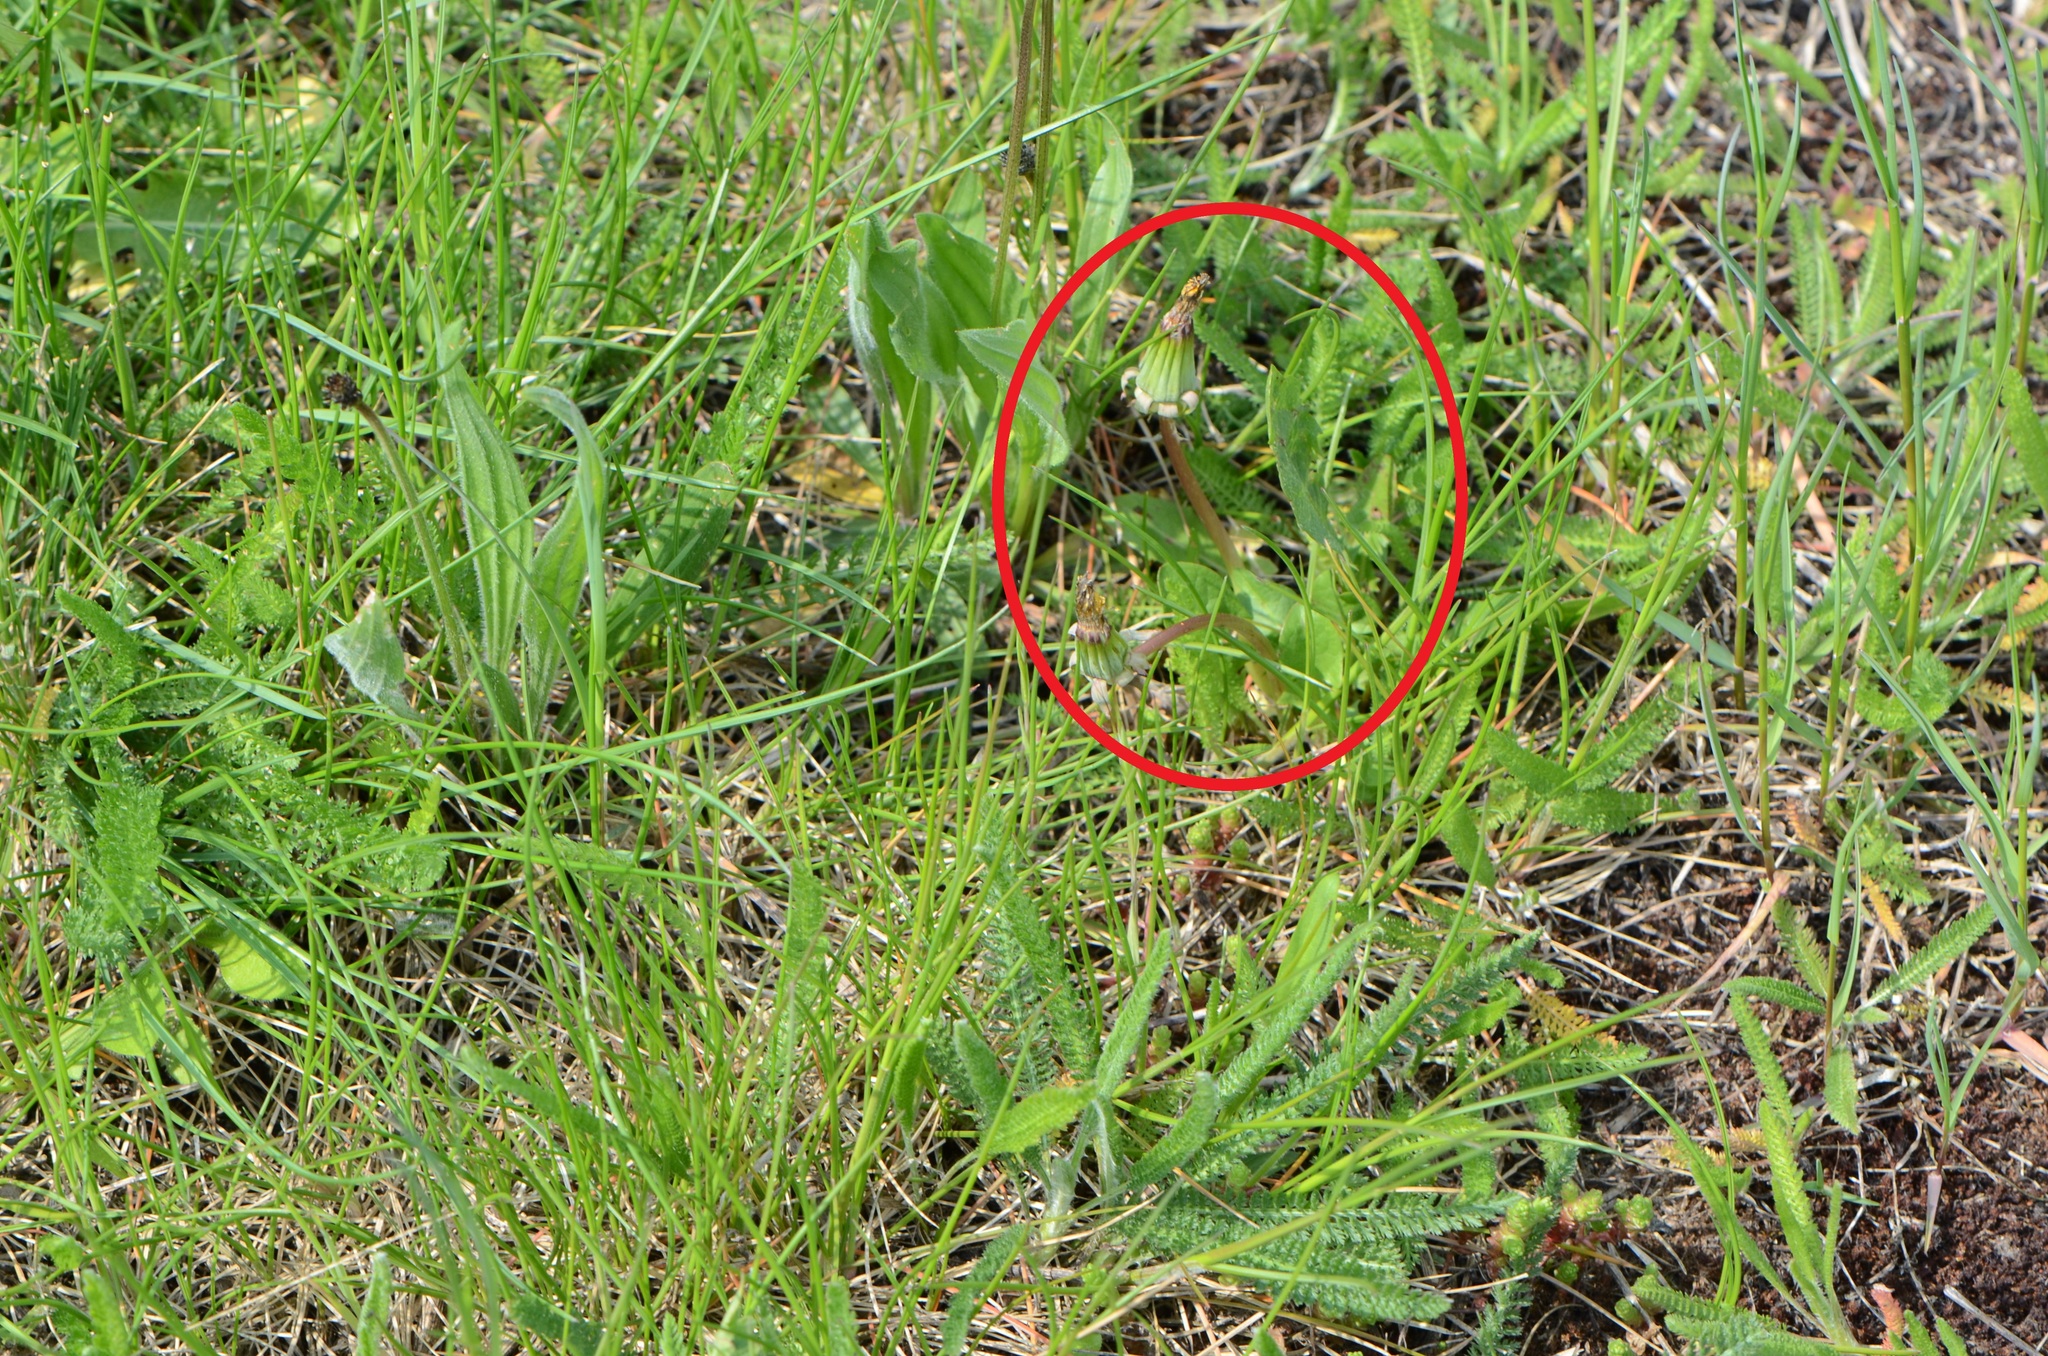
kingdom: Plantae
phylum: Tracheophyta
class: Magnoliopsida
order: Asterales
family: Asteraceae
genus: Taraxacum
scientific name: Taraxacum officinale
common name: Common dandelion
